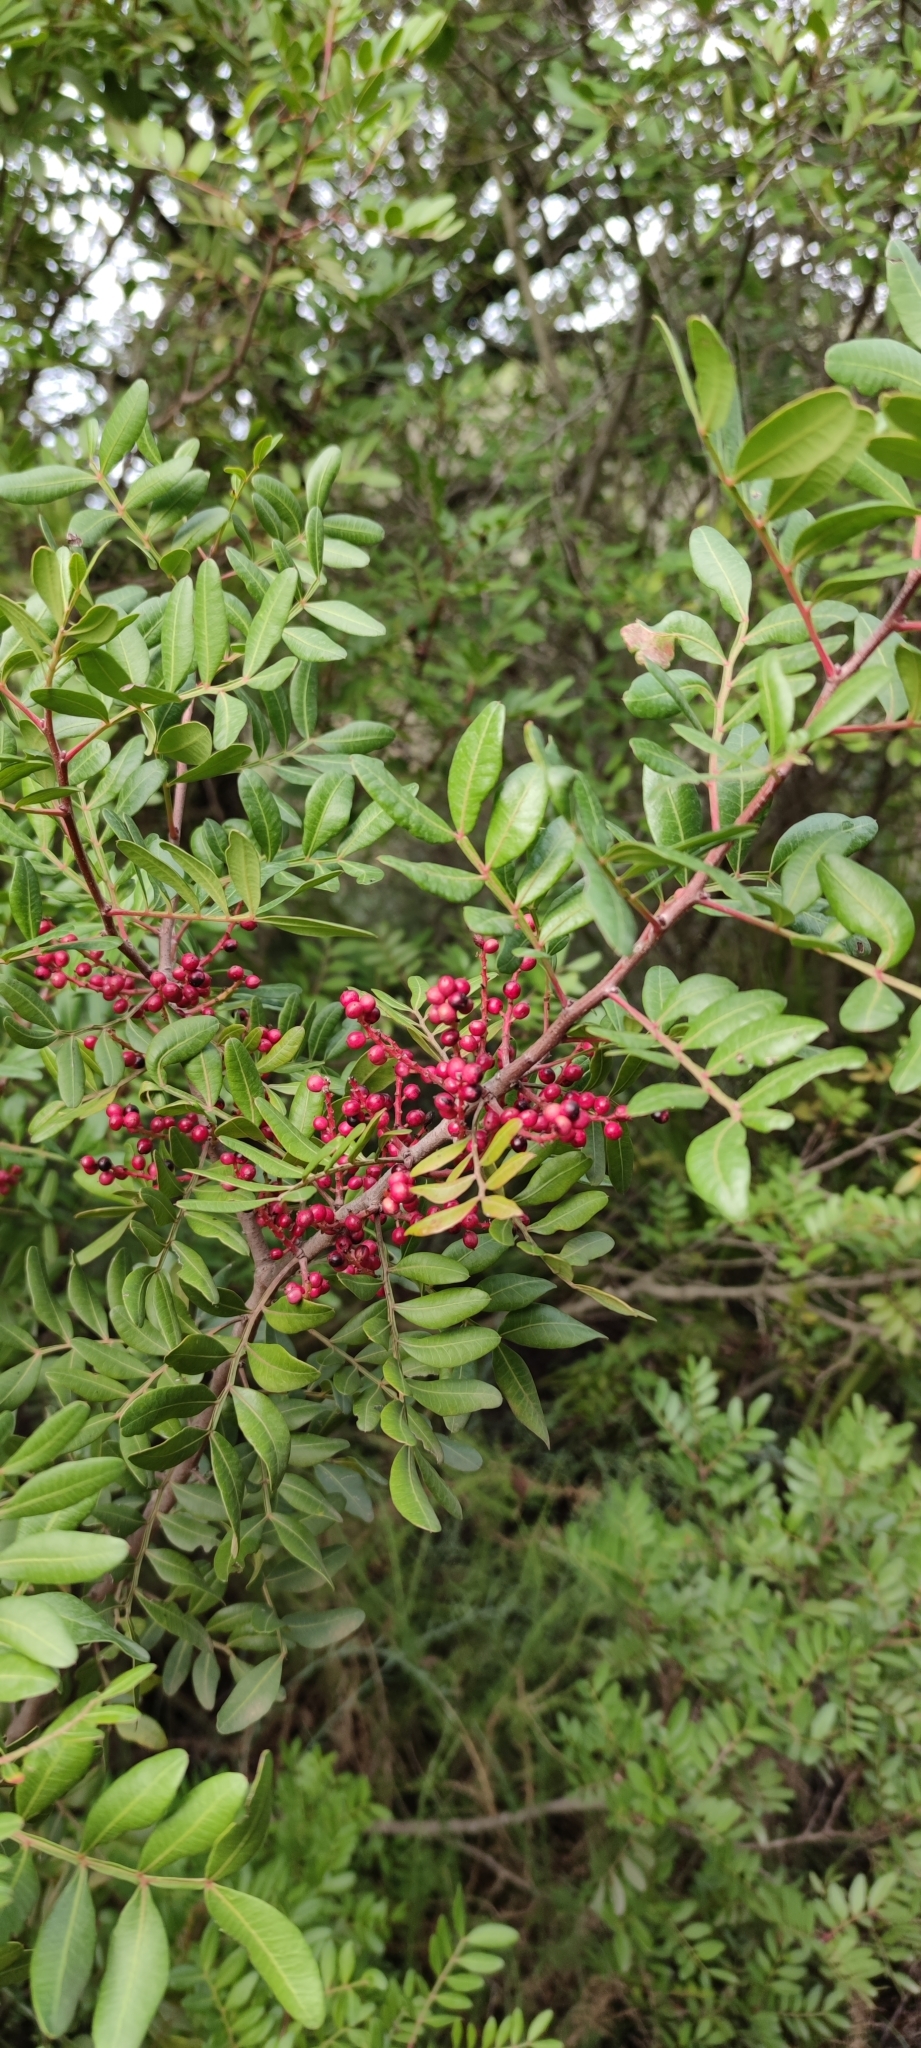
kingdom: Plantae
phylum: Tracheophyta
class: Magnoliopsida
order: Sapindales
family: Anacardiaceae
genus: Pistacia
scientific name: Pistacia lentiscus
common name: Lentisk
